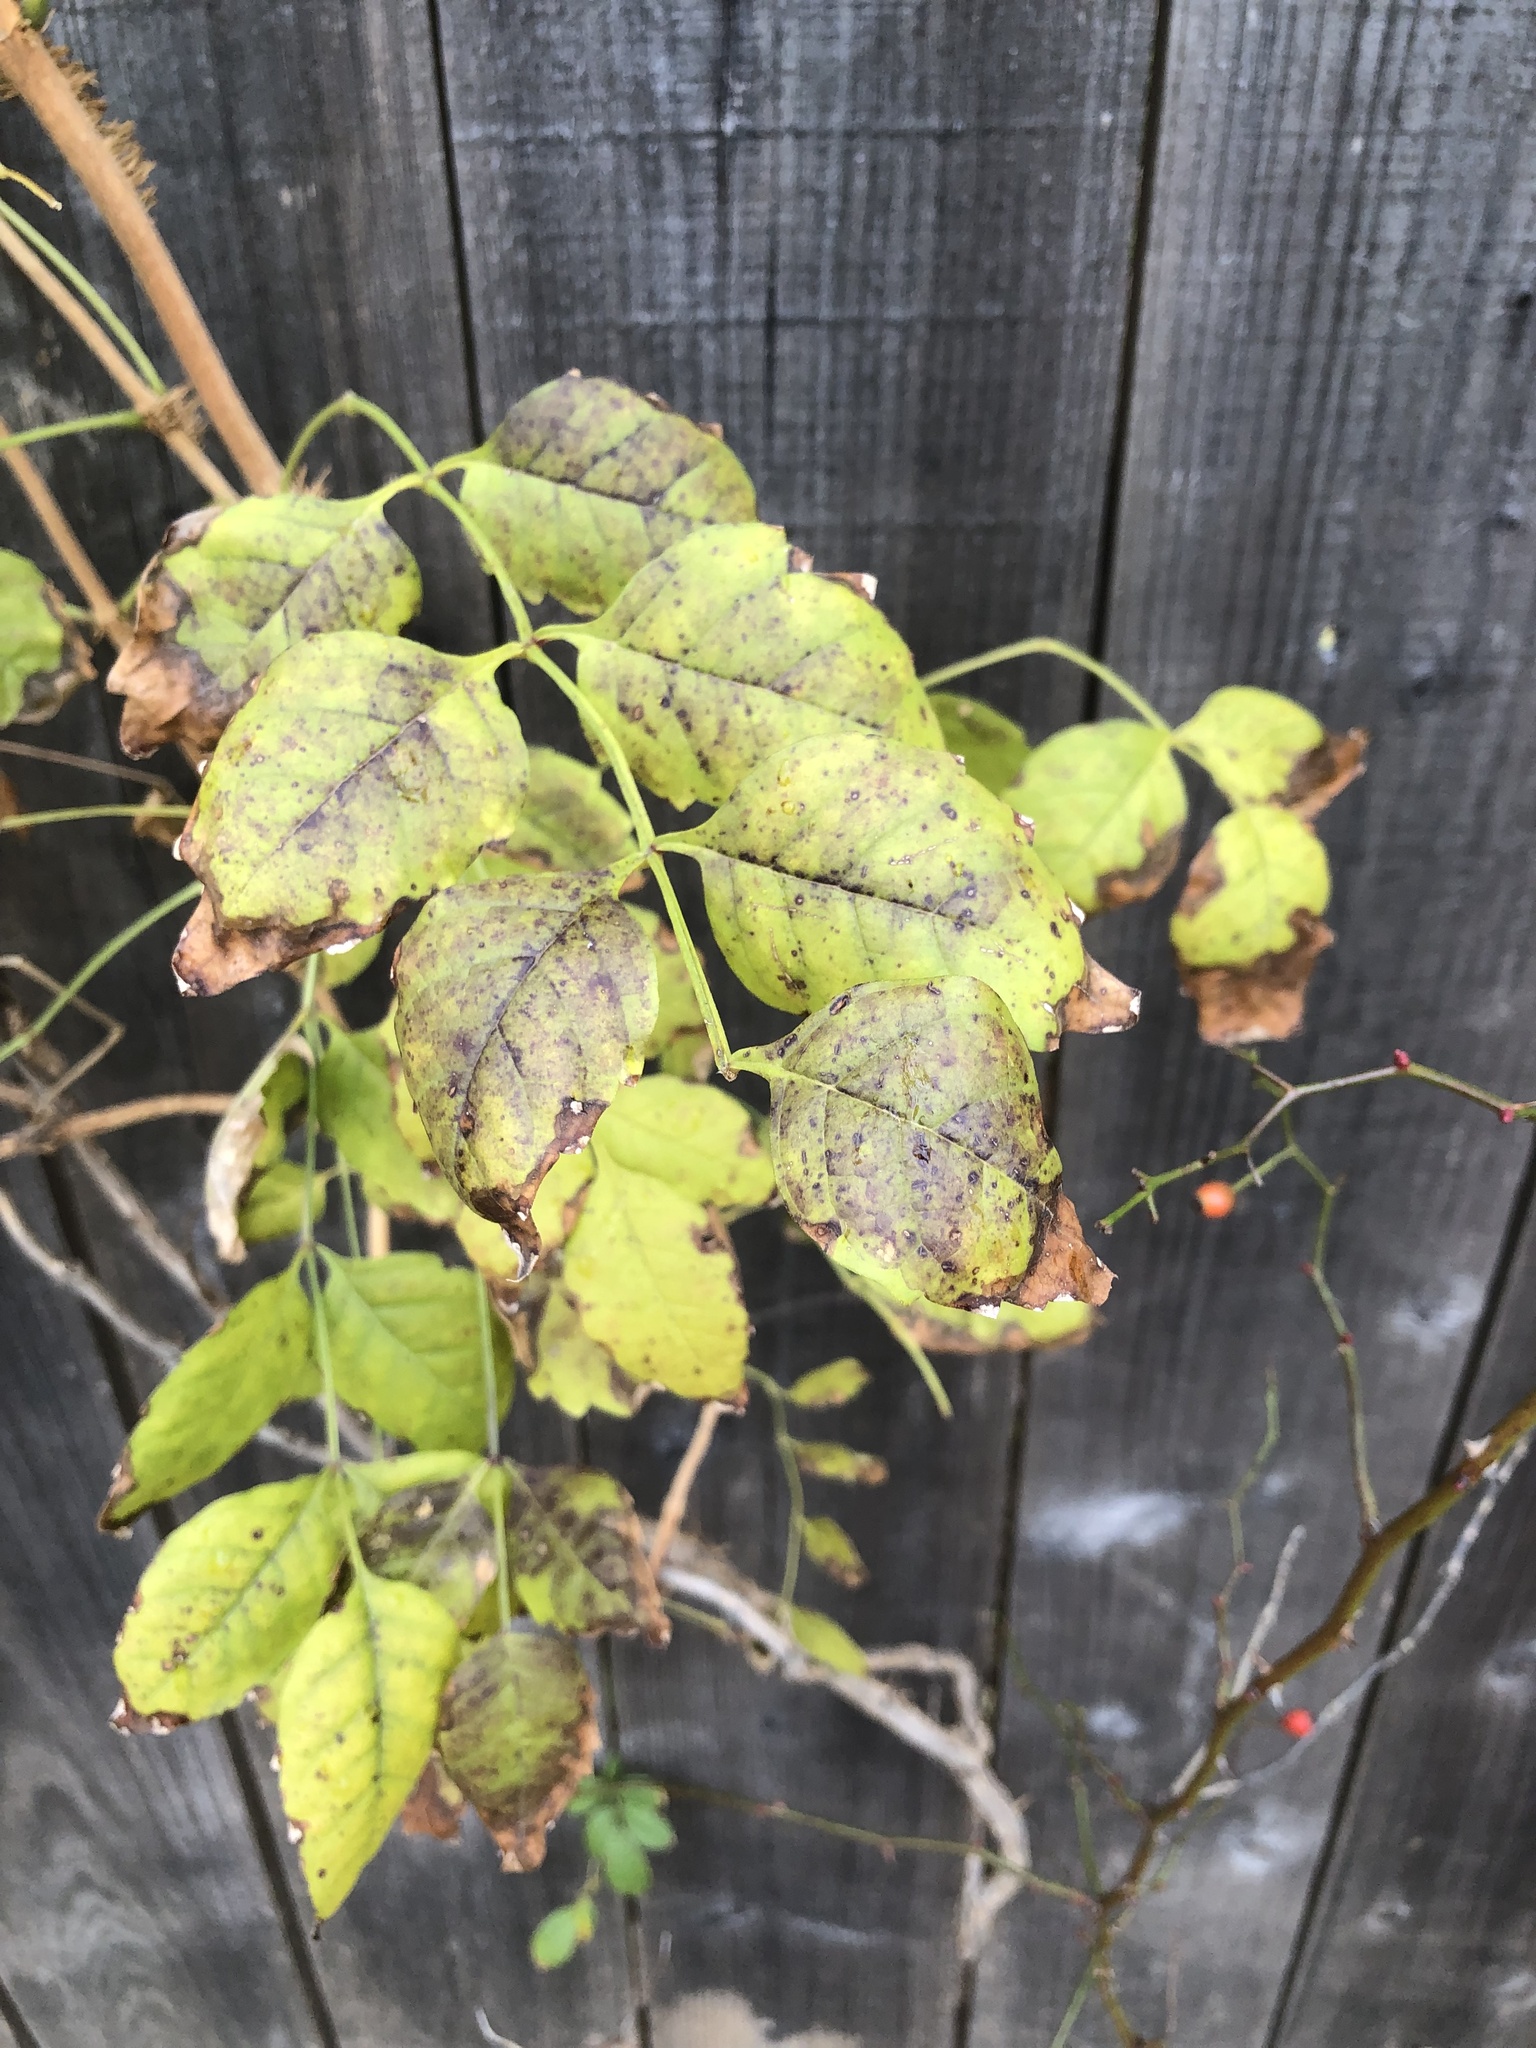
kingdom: Plantae
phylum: Tracheophyta
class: Magnoliopsida
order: Lamiales
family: Bignoniaceae
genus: Campsis
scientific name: Campsis radicans
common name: Trumpet-creeper
